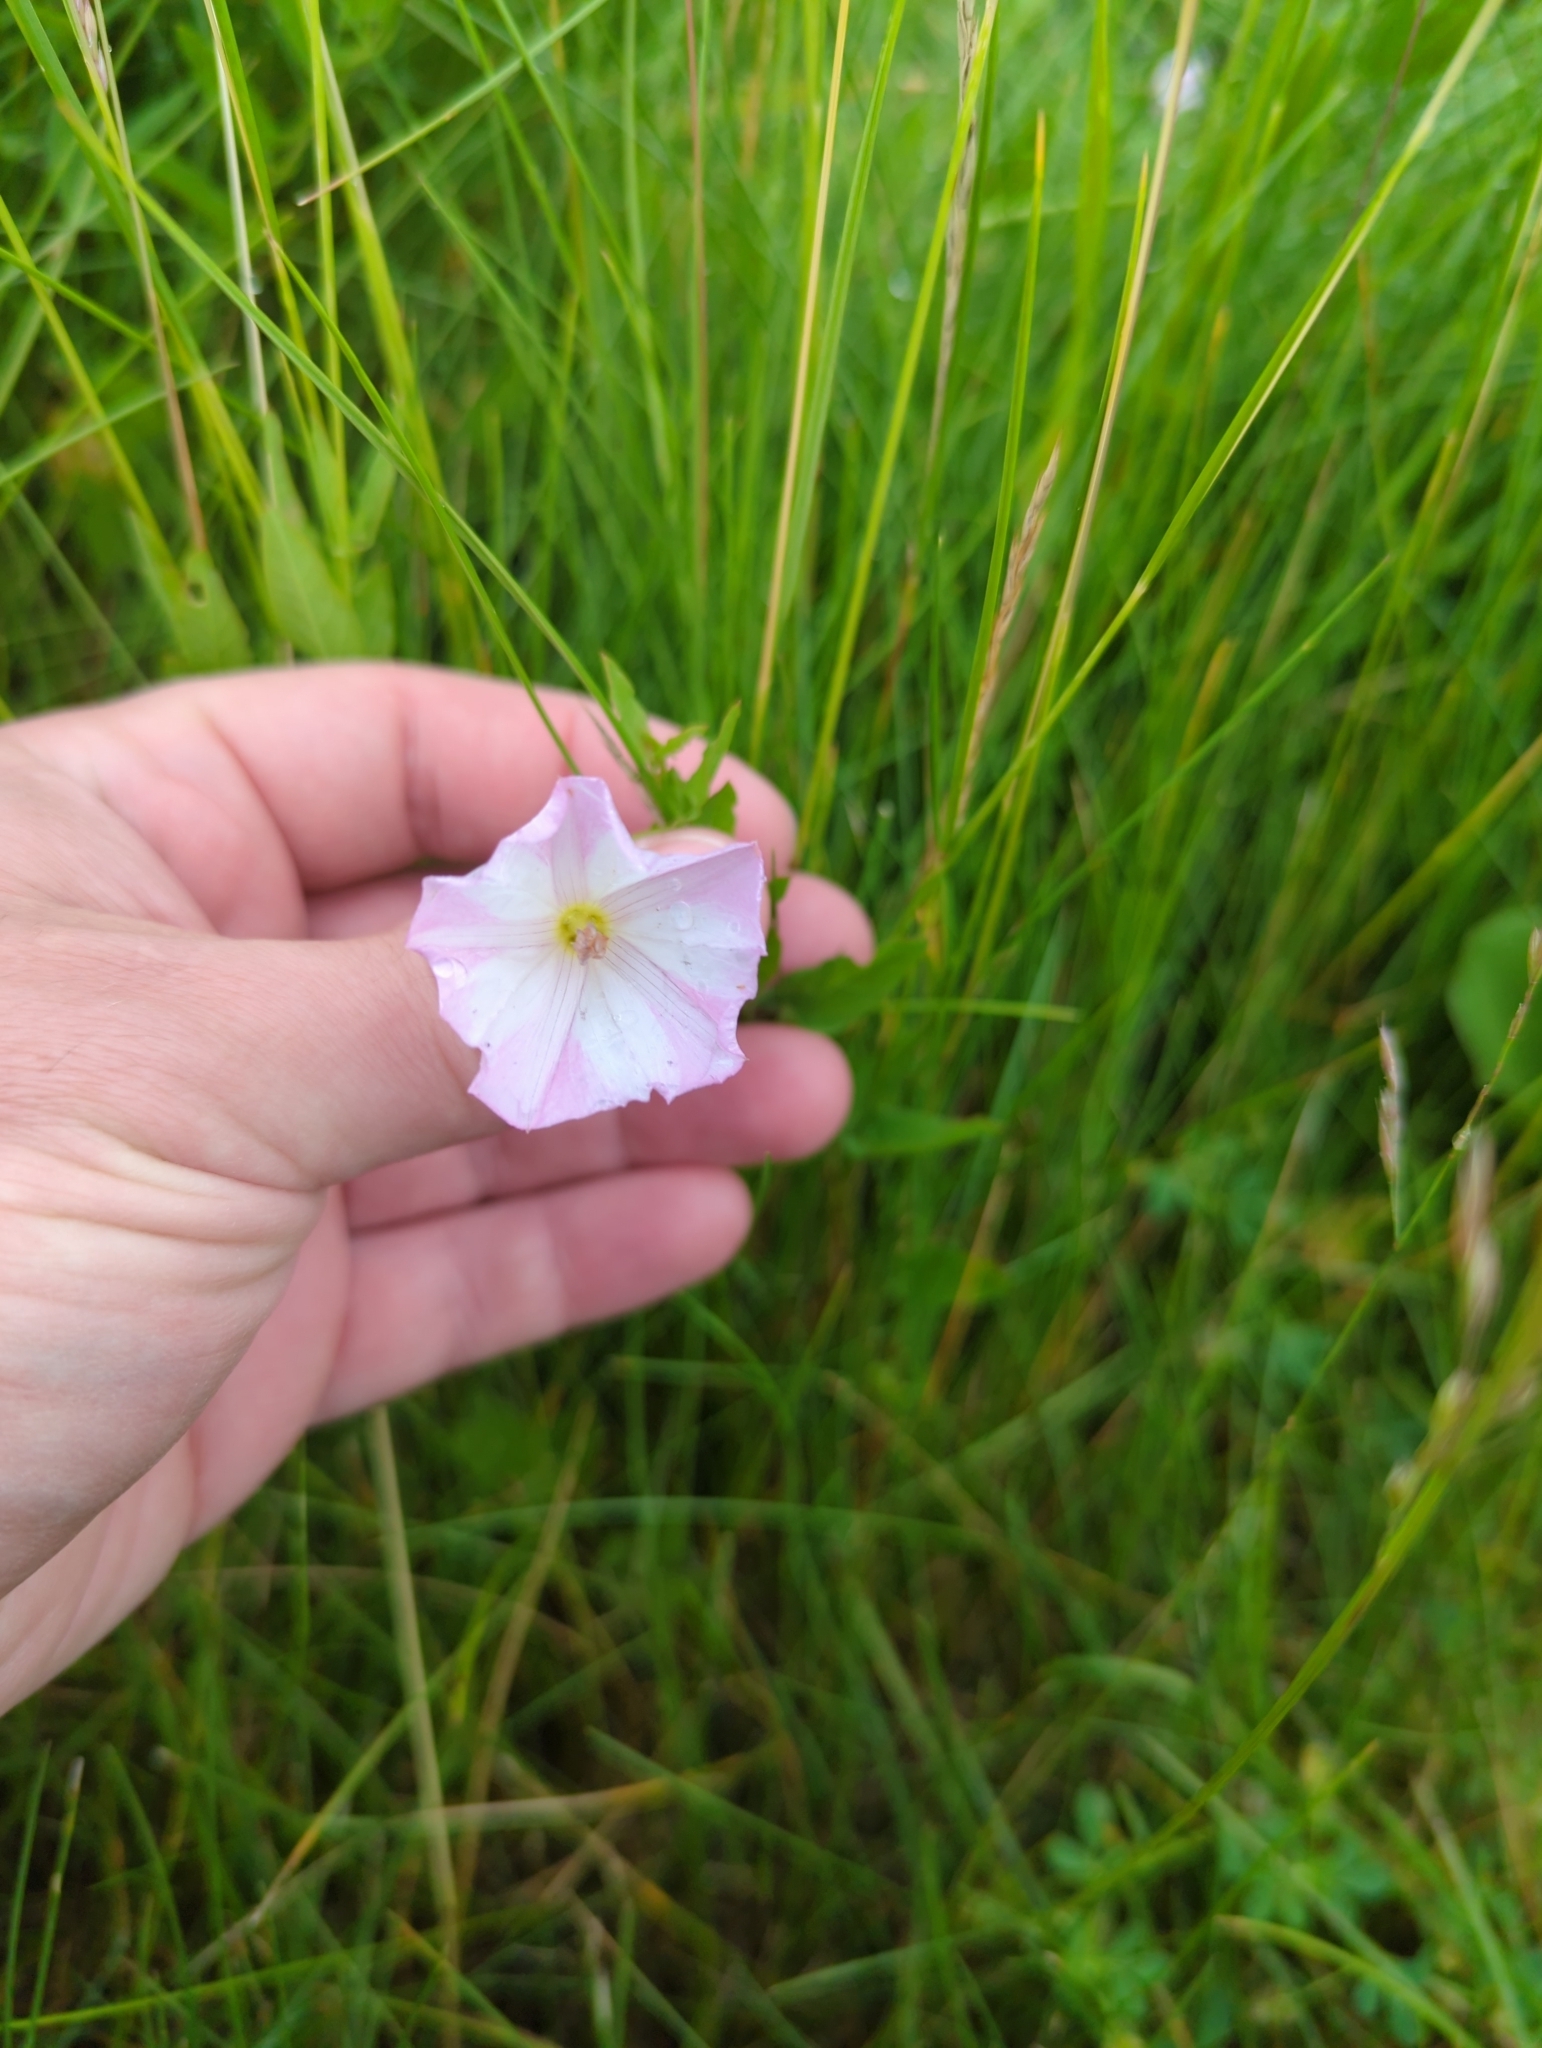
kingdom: Plantae
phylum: Tracheophyta
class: Magnoliopsida
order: Solanales
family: Convolvulaceae
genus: Convolvulus
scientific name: Convolvulus arvensis
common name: Field bindweed
